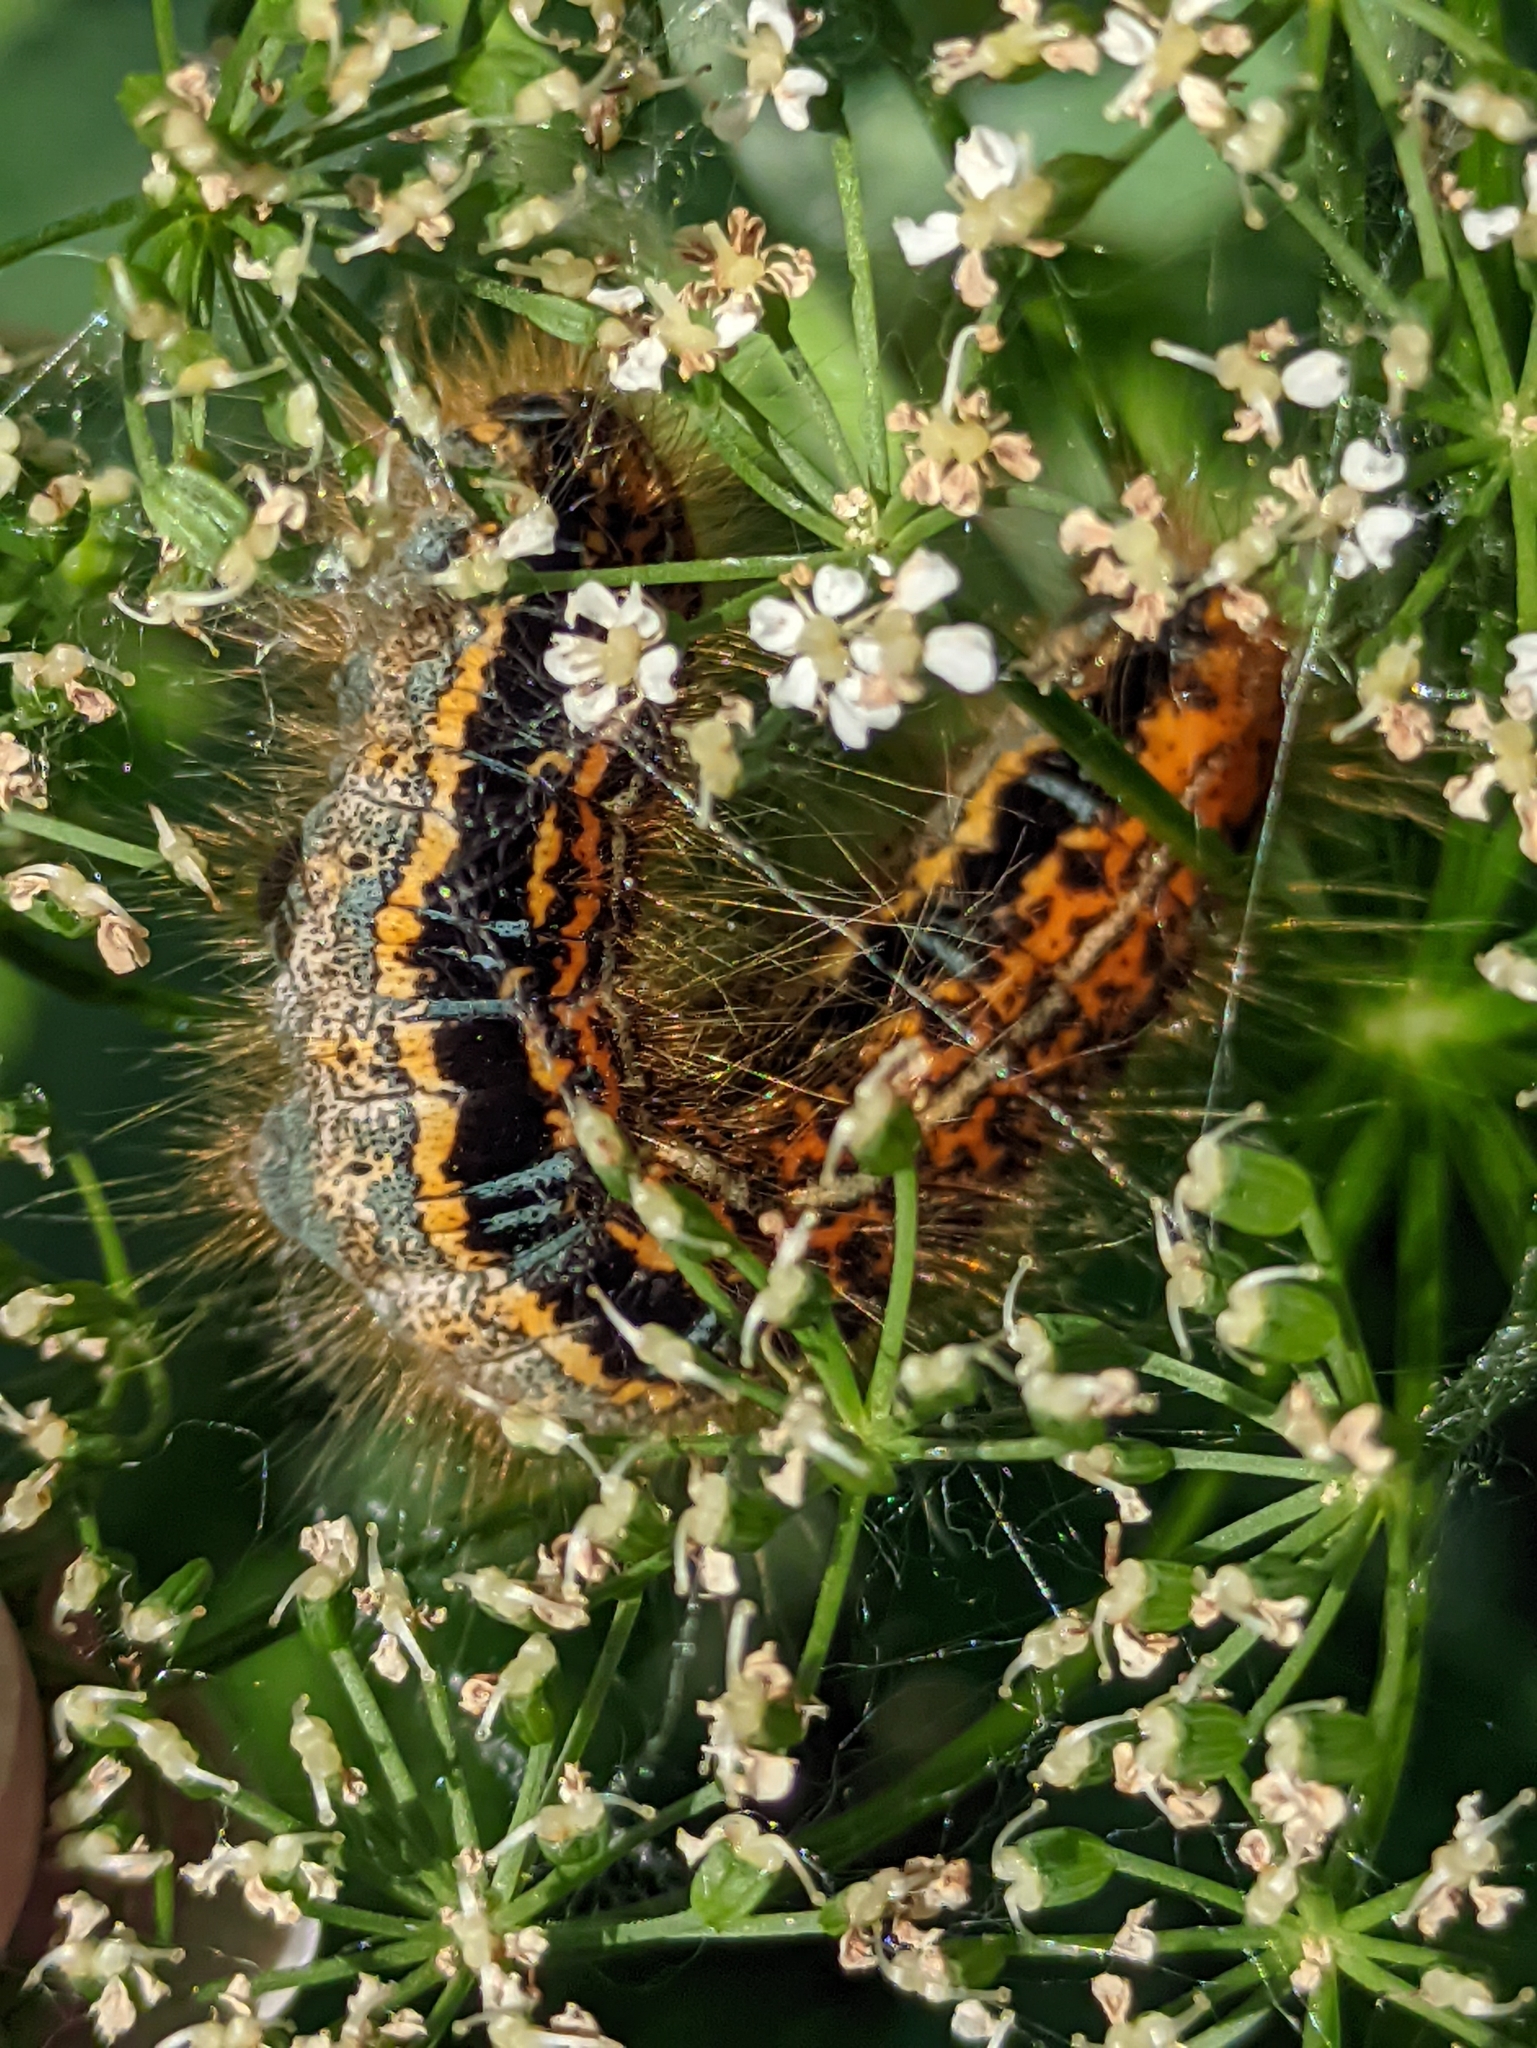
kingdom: Animalia
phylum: Arthropoda
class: Insecta
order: Lepidoptera
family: Lasiocampidae
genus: Malacosoma
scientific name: Malacosoma castrense
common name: Ground lackey
